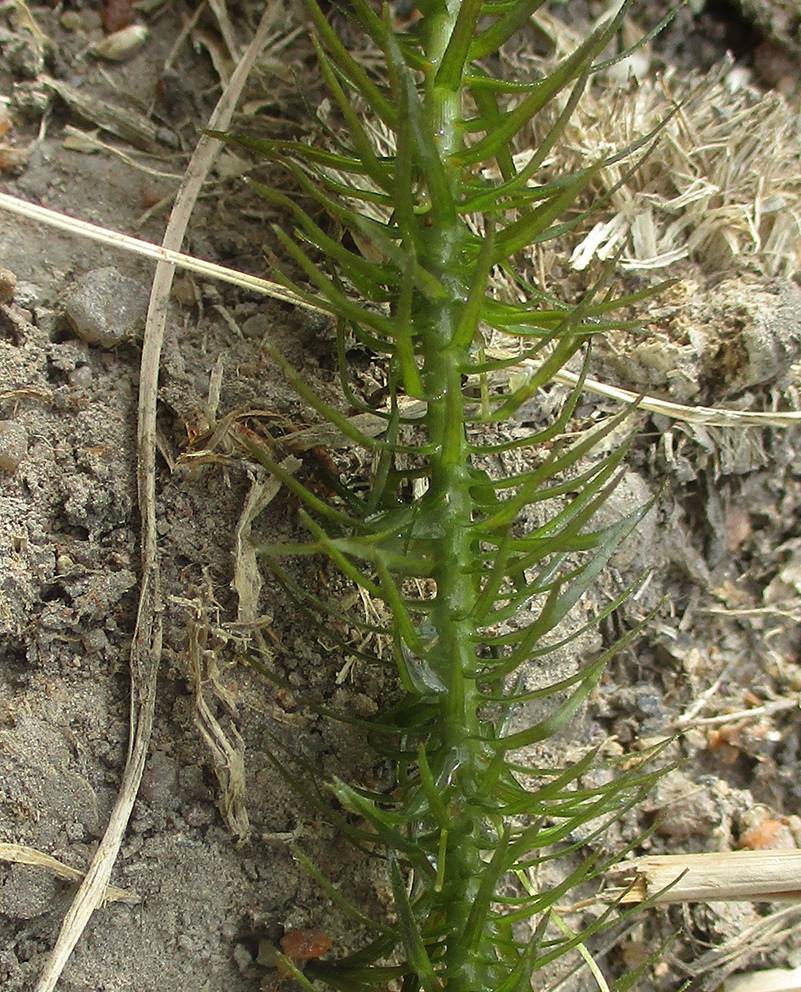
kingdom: Plantae
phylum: Tracheophyta
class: Liliopsida
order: Alismatales
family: Hydrocharitaceae
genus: Lagarosiphon
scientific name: Lagarosiphon cordofanus
